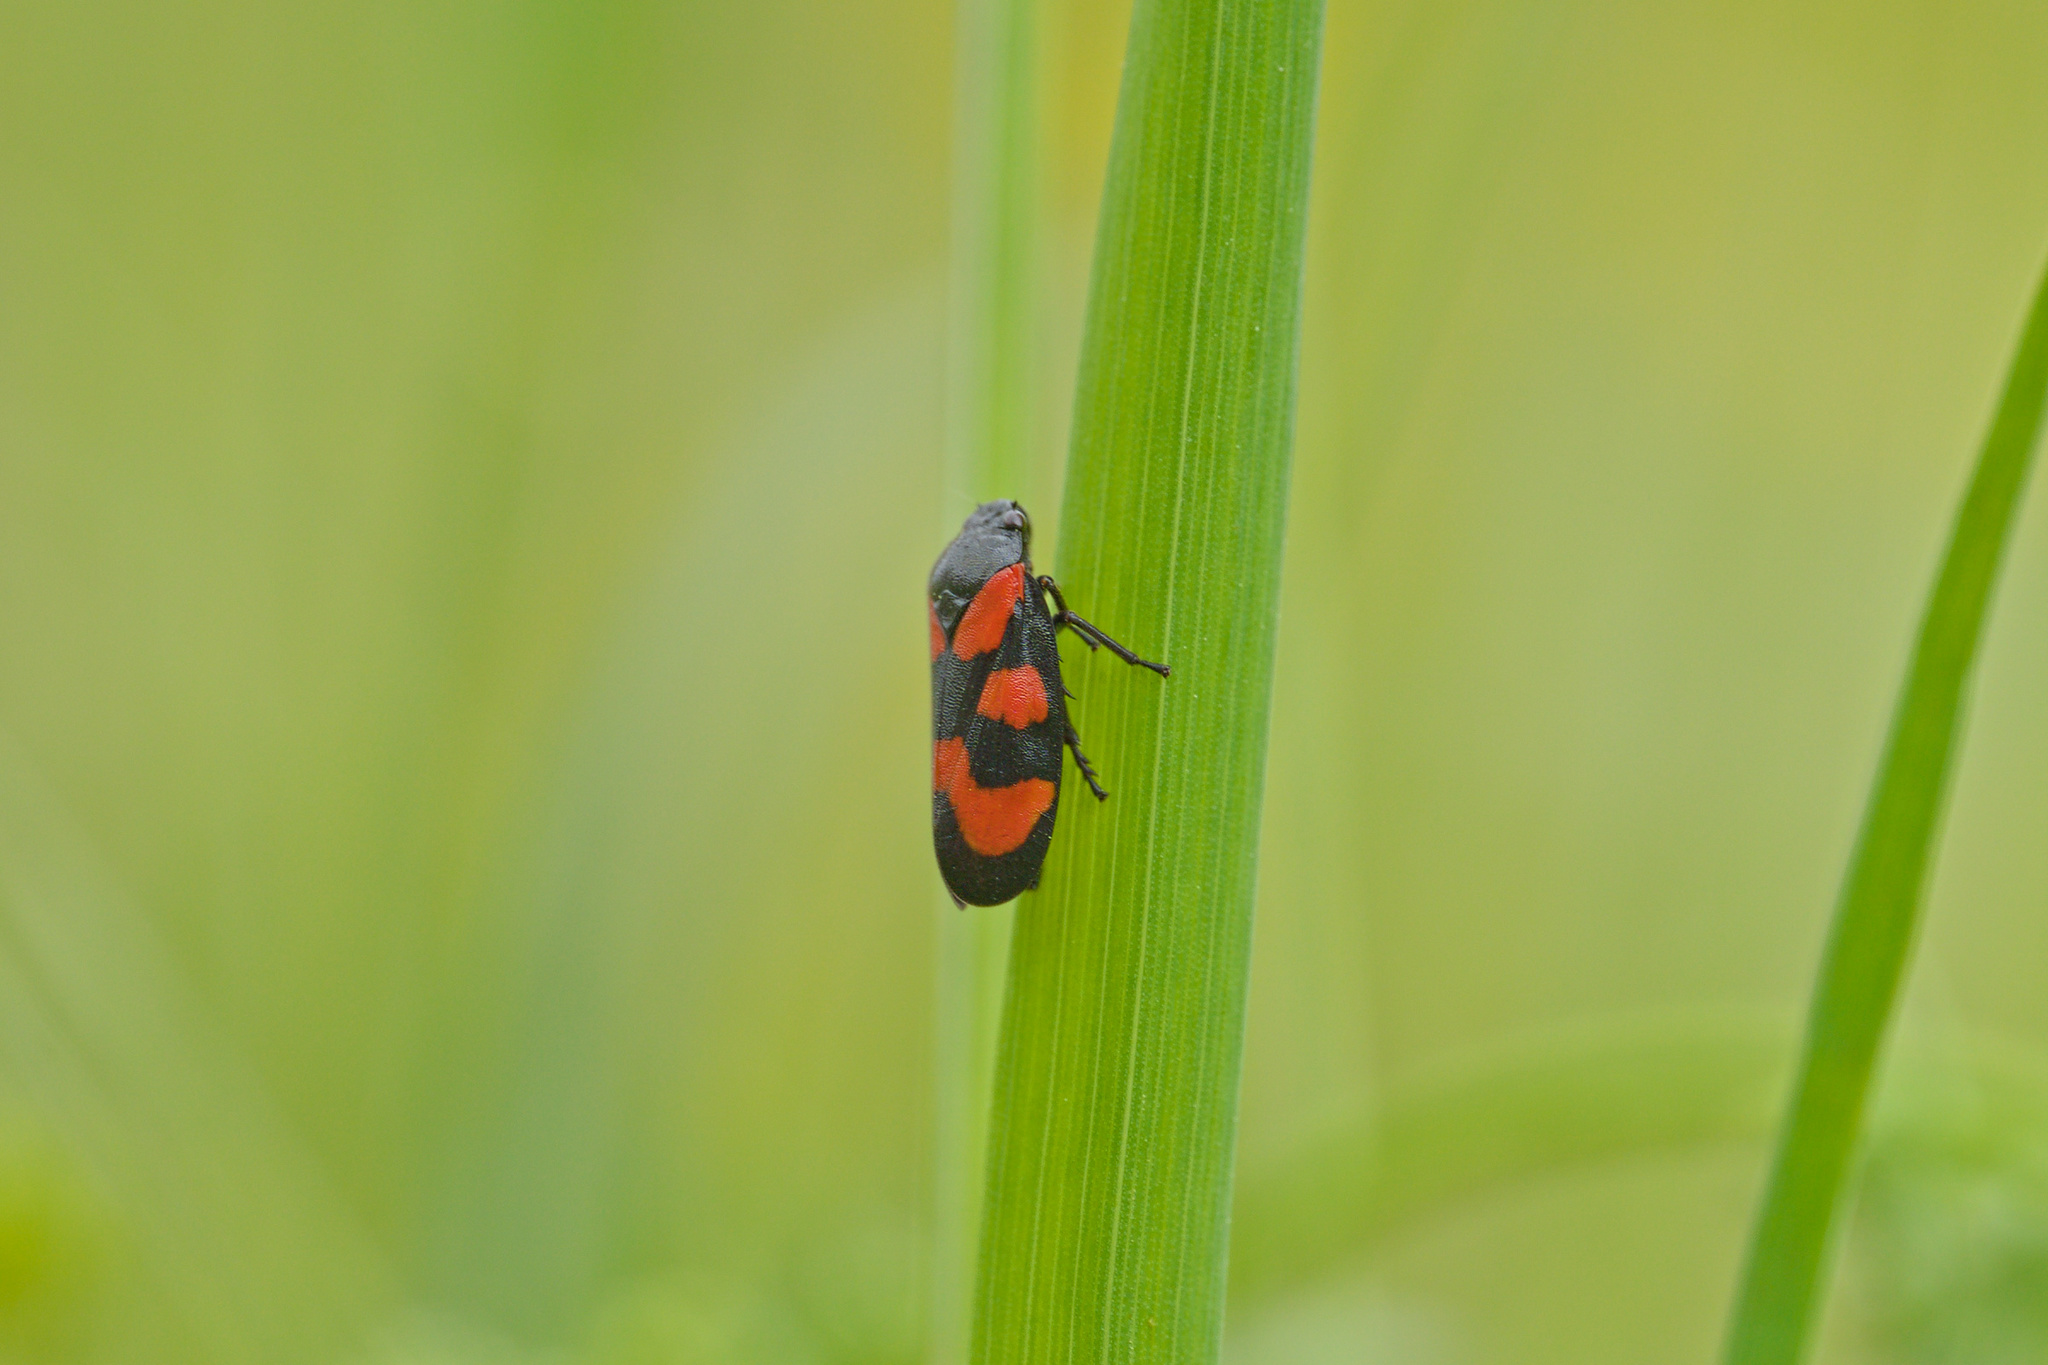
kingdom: Animalia
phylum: Arthropoda
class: Insecta
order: Hemiptera
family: Cercopidae
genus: Cercopis
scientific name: Cercopis vulnerata
